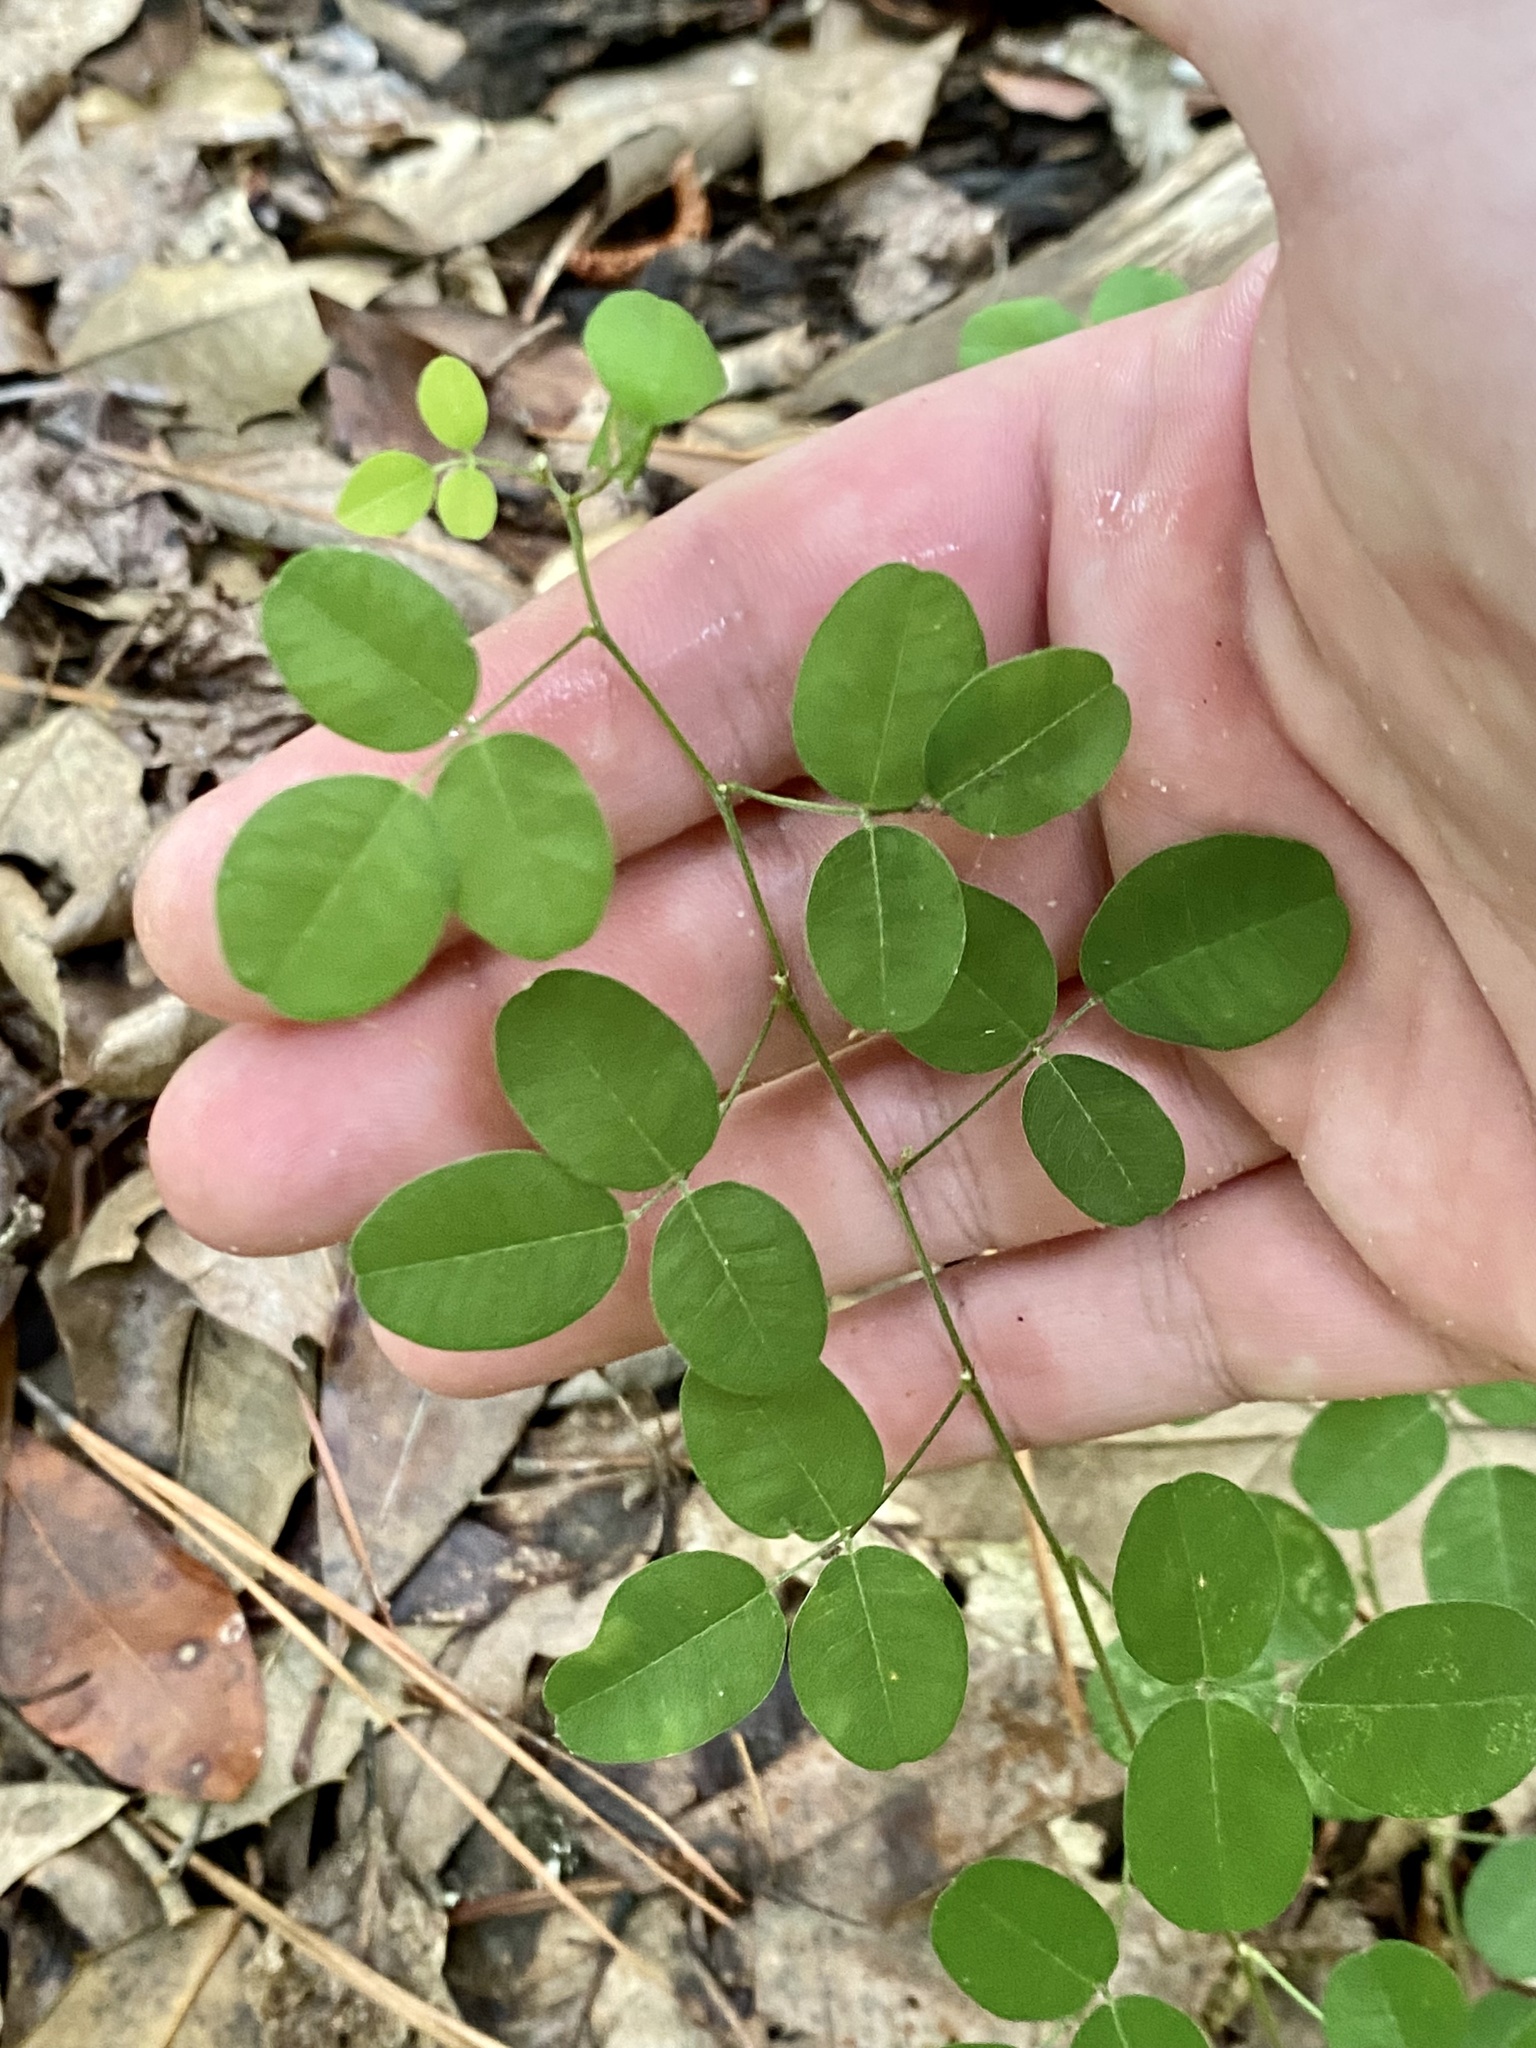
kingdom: Plantae
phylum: Tracheophyta
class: Magnoliopsida
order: Fabales
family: Fabaceae
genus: Lespedeza
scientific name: Lespedeza repens
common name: Creeping bush-clover
